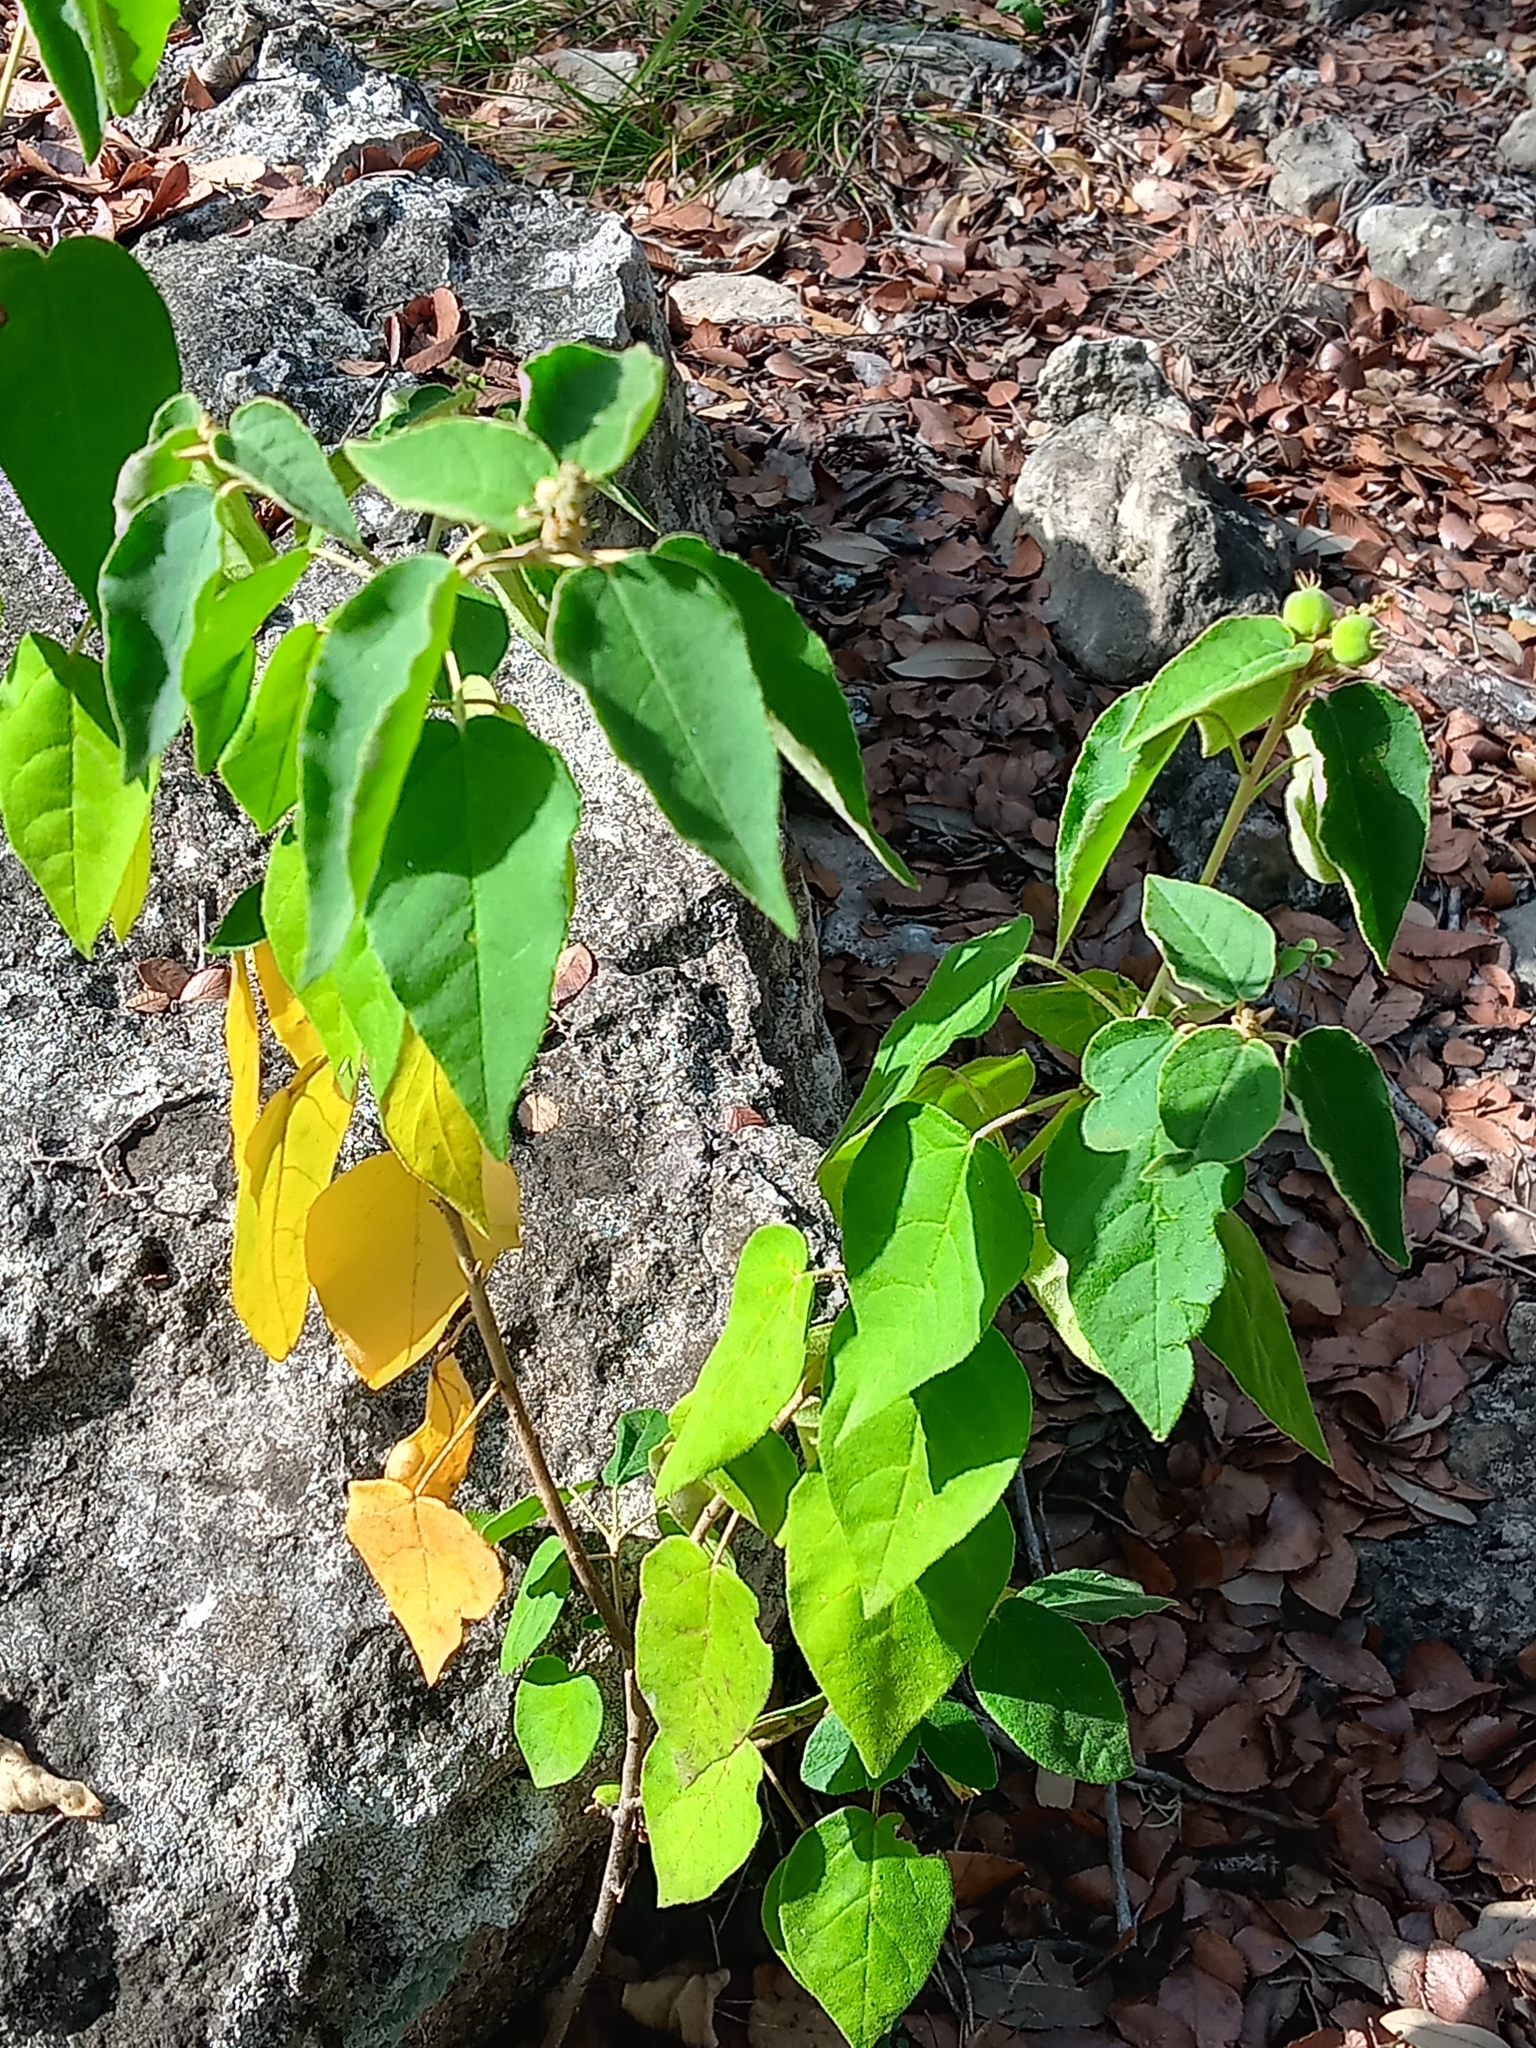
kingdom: Plantae
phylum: Tracheophyta
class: Magnoliopsida
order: Malpighiales
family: Euphorbiaceae
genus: Croton
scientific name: Croton fruticulosus
